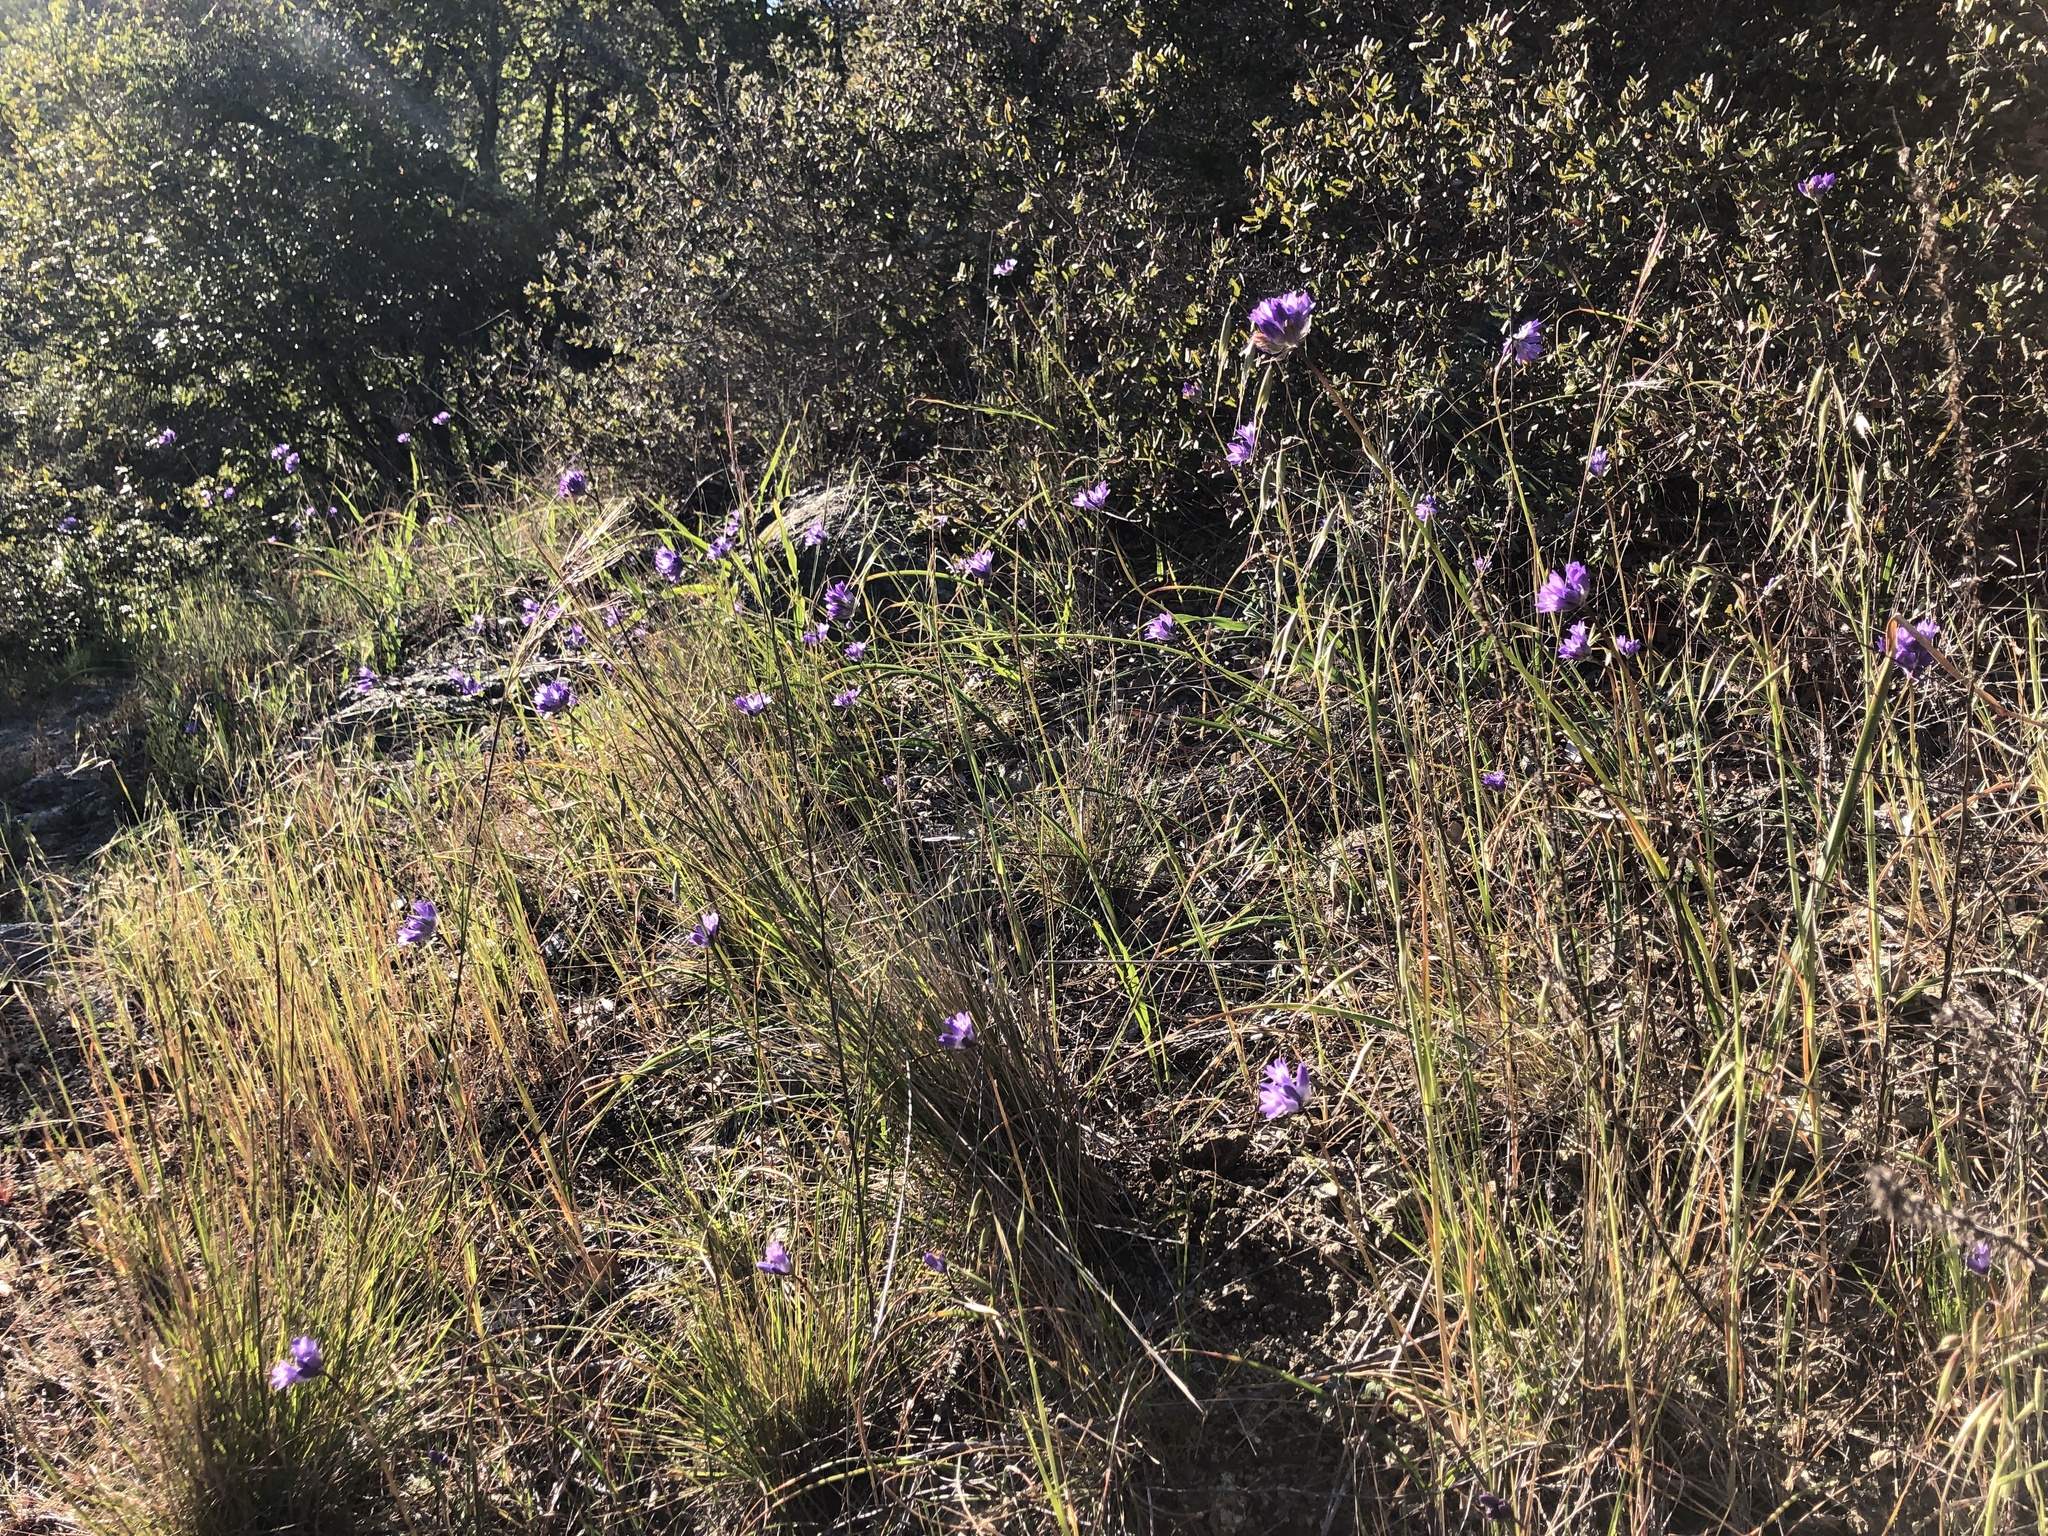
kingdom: Plantae
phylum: Tracheophyta
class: Liliopsida
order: Asparagales
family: Asparagaceae
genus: Dipterostemon
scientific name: Dipterostemon capitatus
